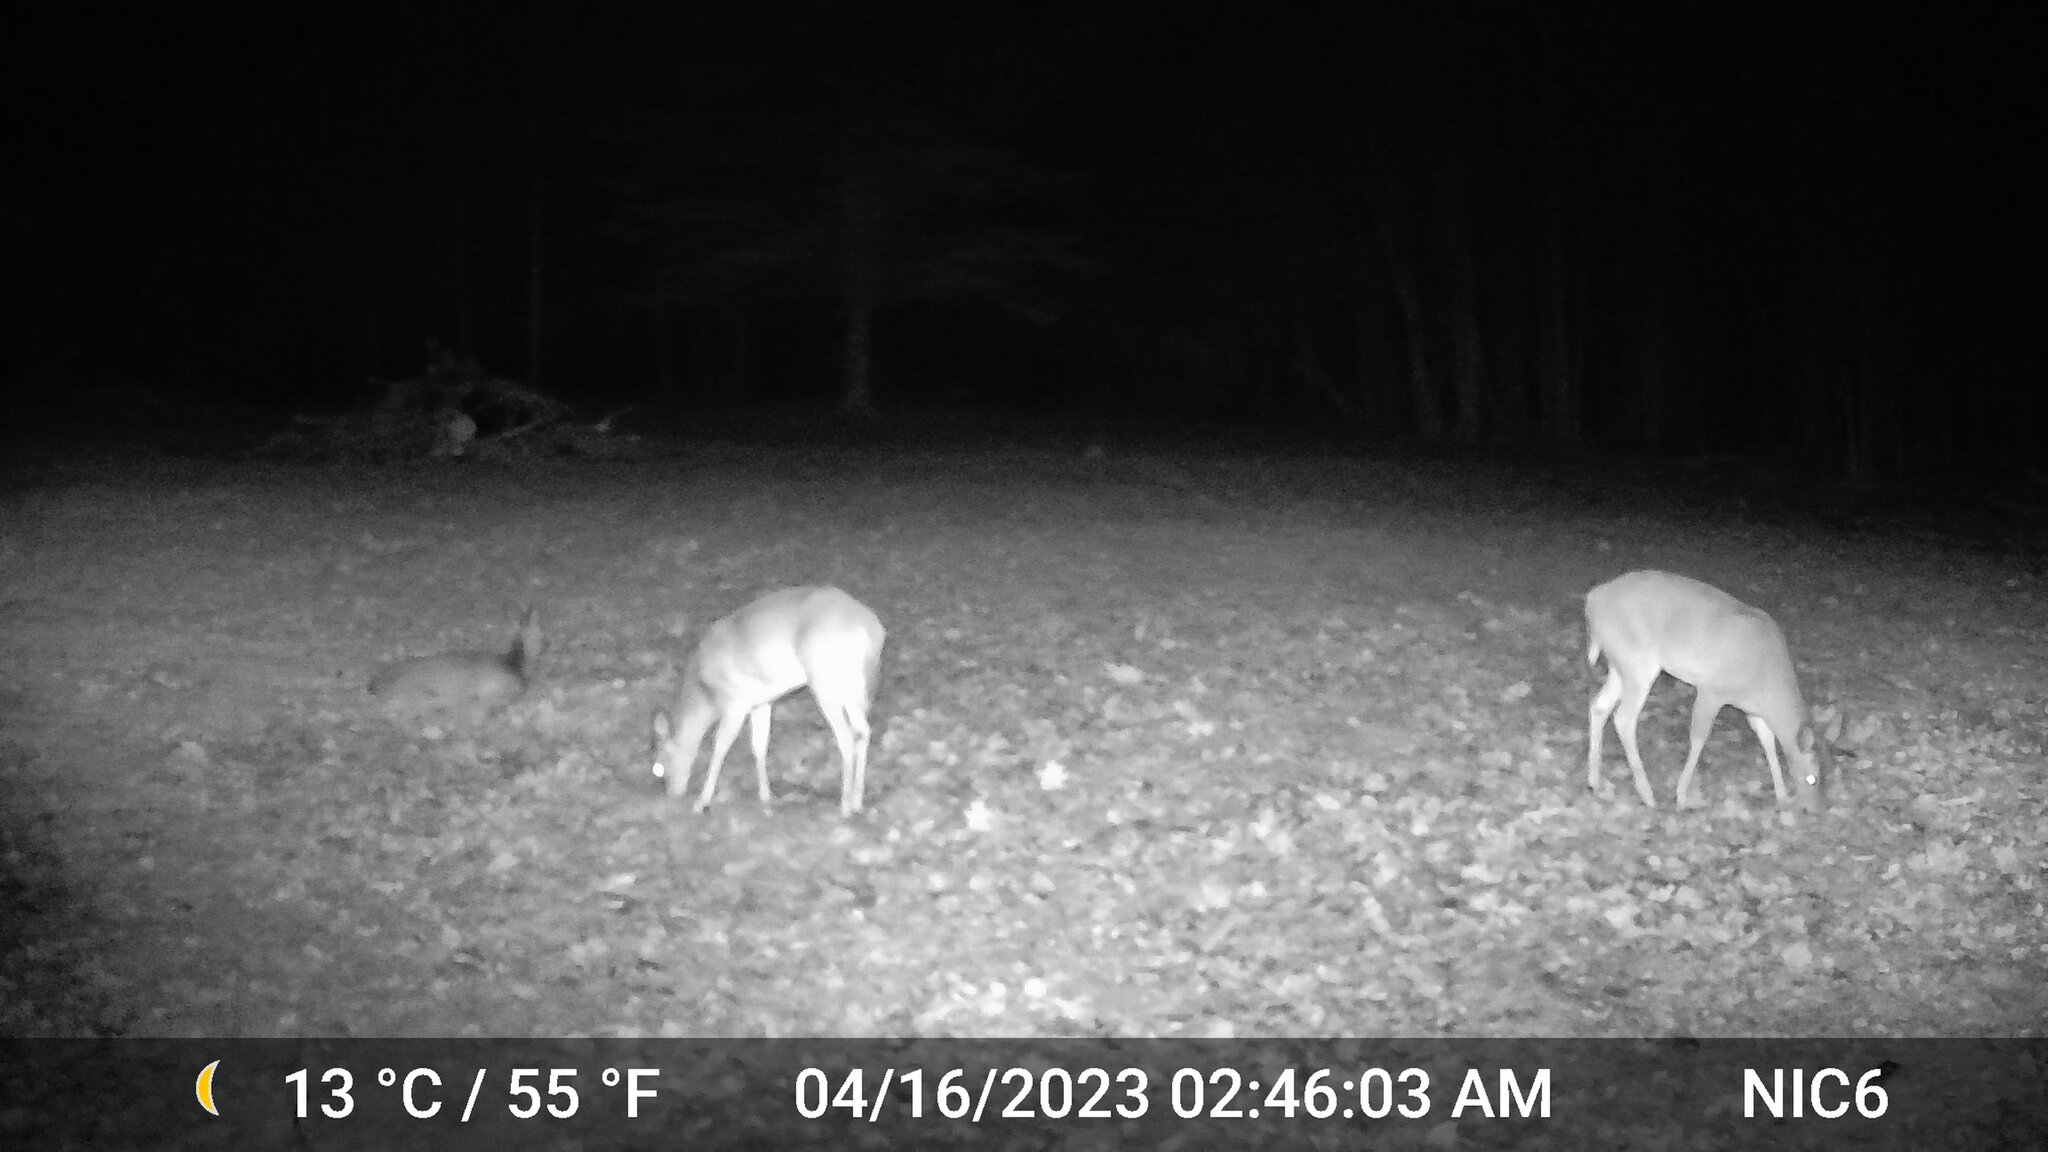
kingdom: Animalia
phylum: Chordata
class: Mammalia
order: Artiodactyla
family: Cervidae
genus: Odocoileus
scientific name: Odocoileus virginianus
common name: White-tailed deer
